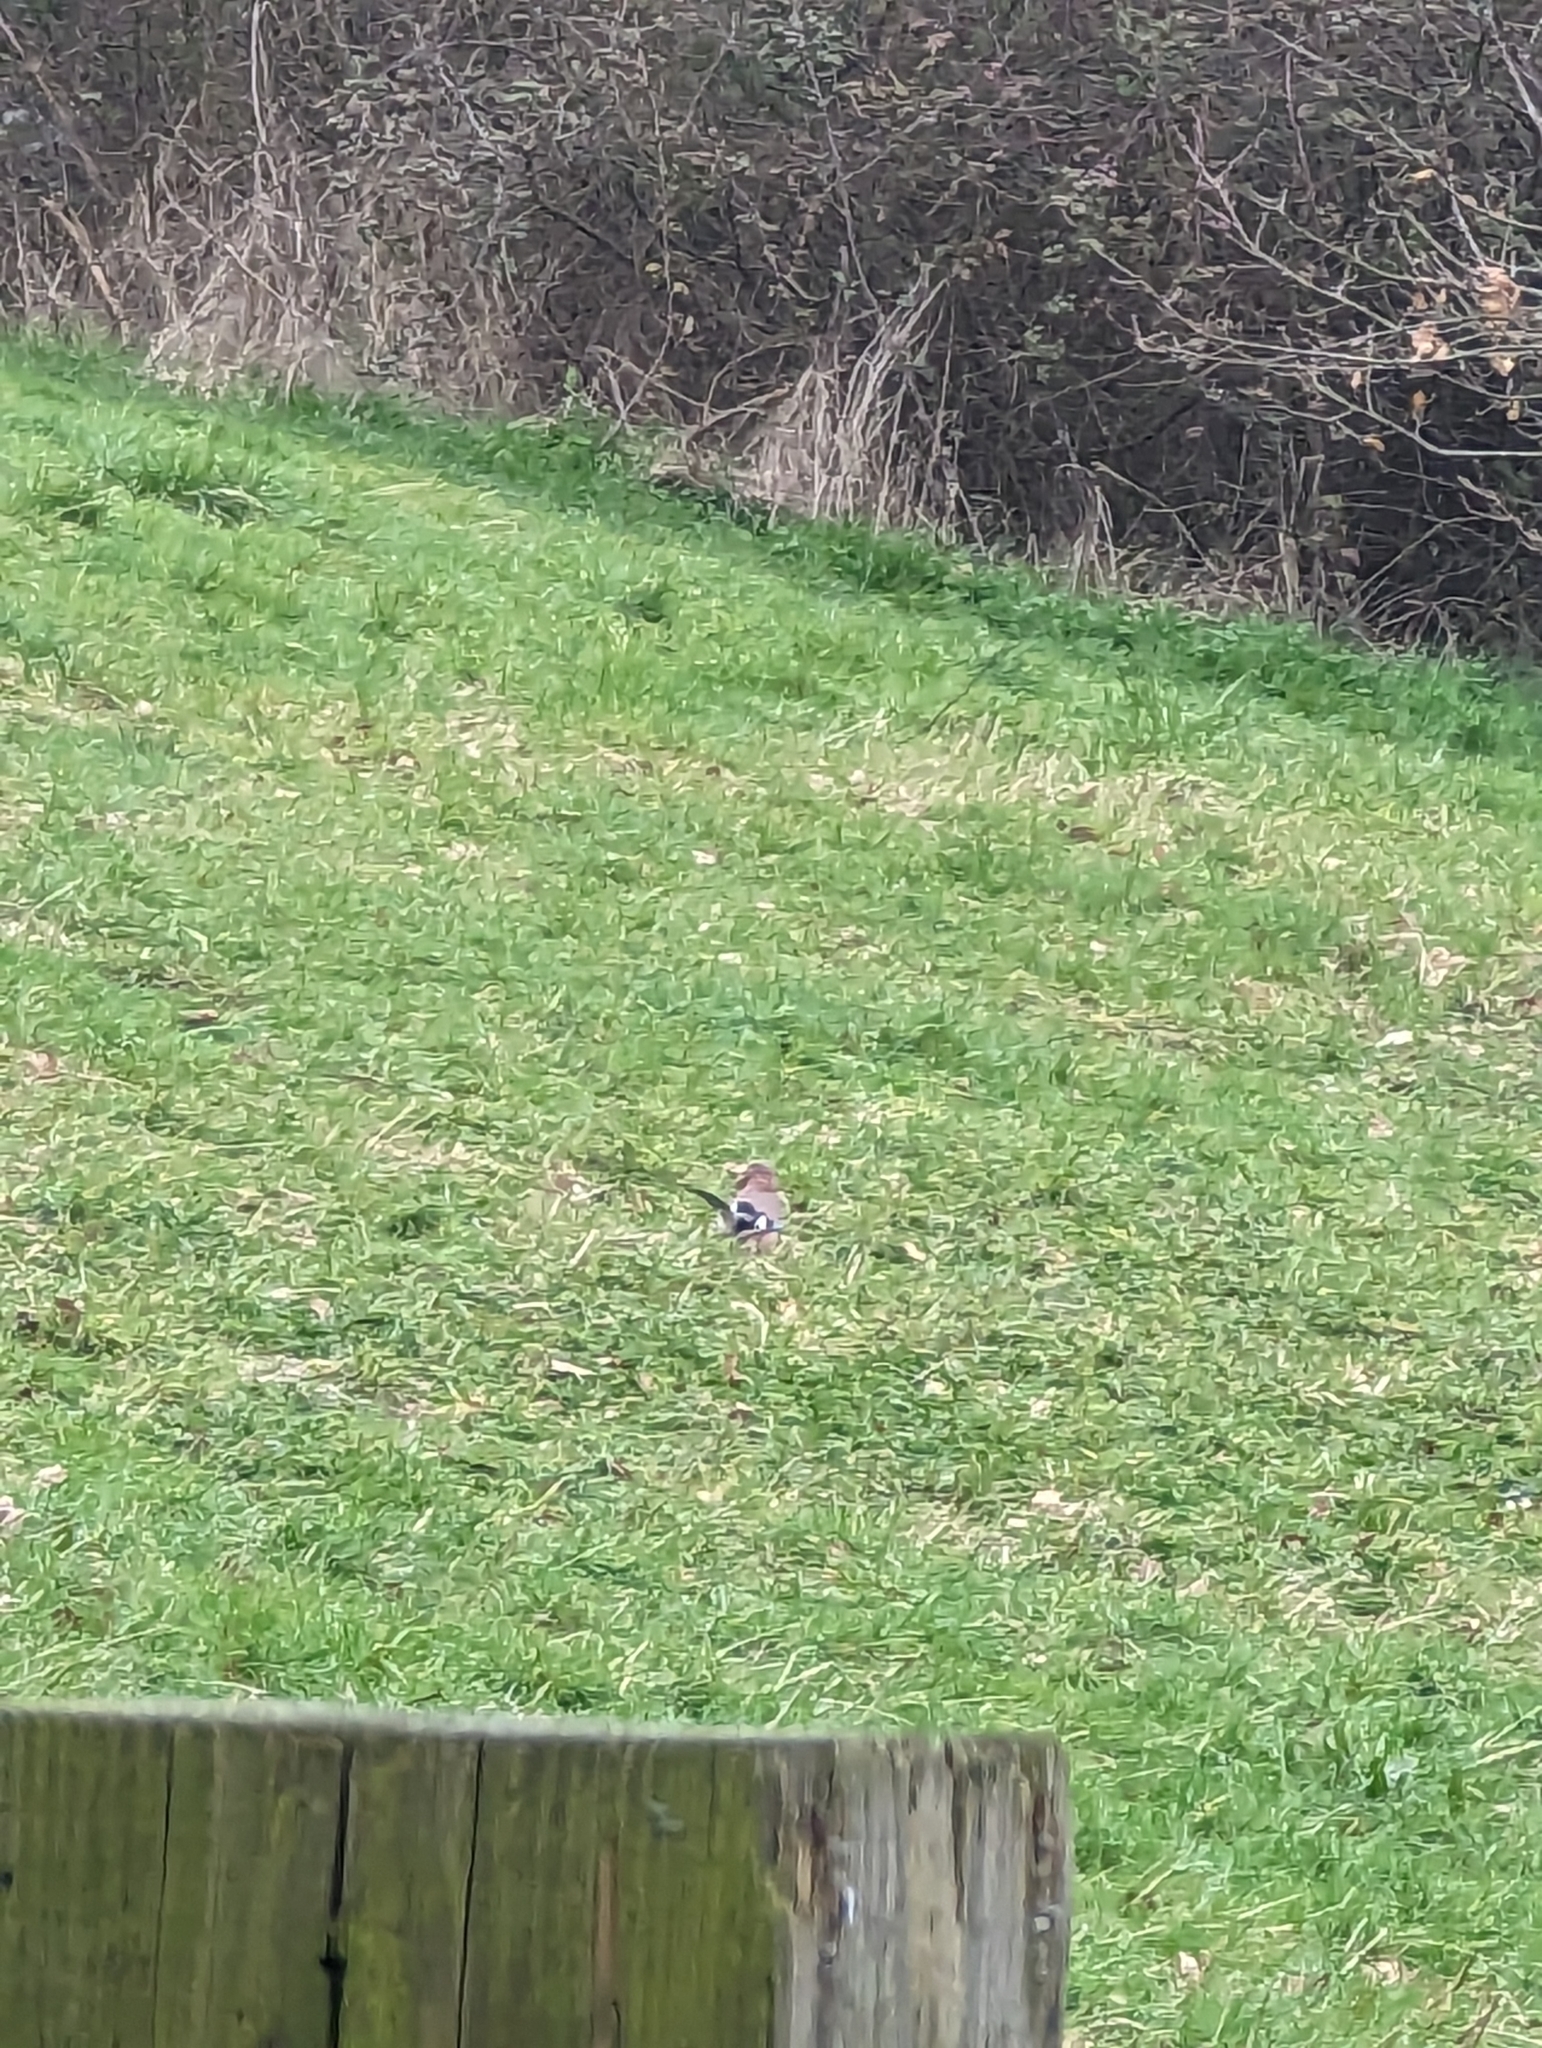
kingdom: Animalia
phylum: Chordata
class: Aves
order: Passeriformes
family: Corvidae
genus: Garrulus
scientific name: Garrulus glandarius
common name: Eurasian jay
